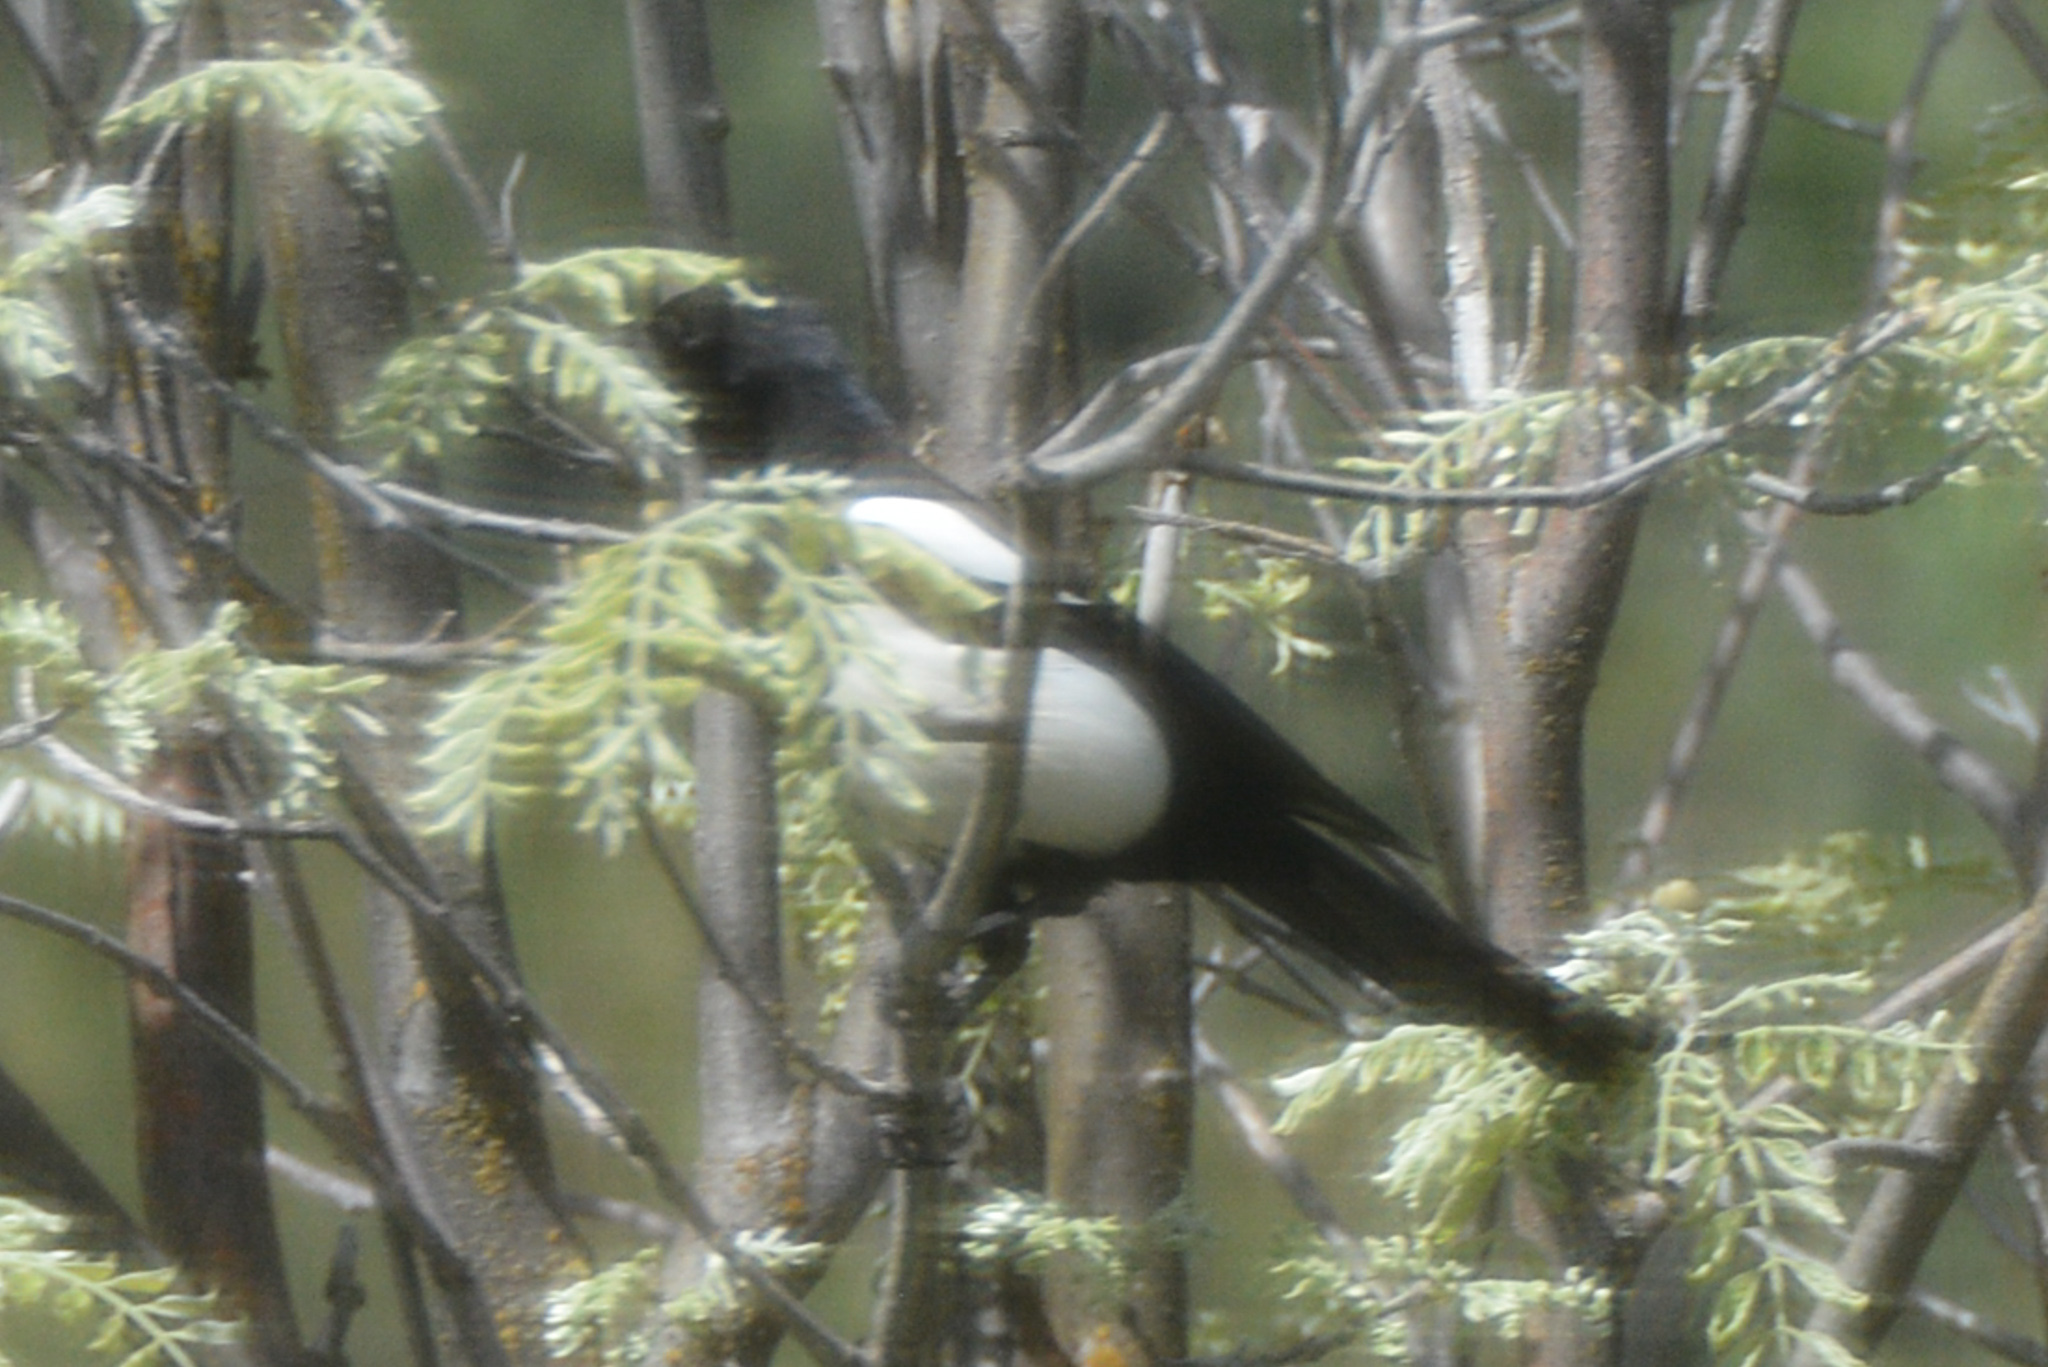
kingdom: Animalia
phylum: Chordata
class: Aves
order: Passeriformes
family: Corvidae
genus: Pica
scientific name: Pica hudsonia
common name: Black-billed magpie
